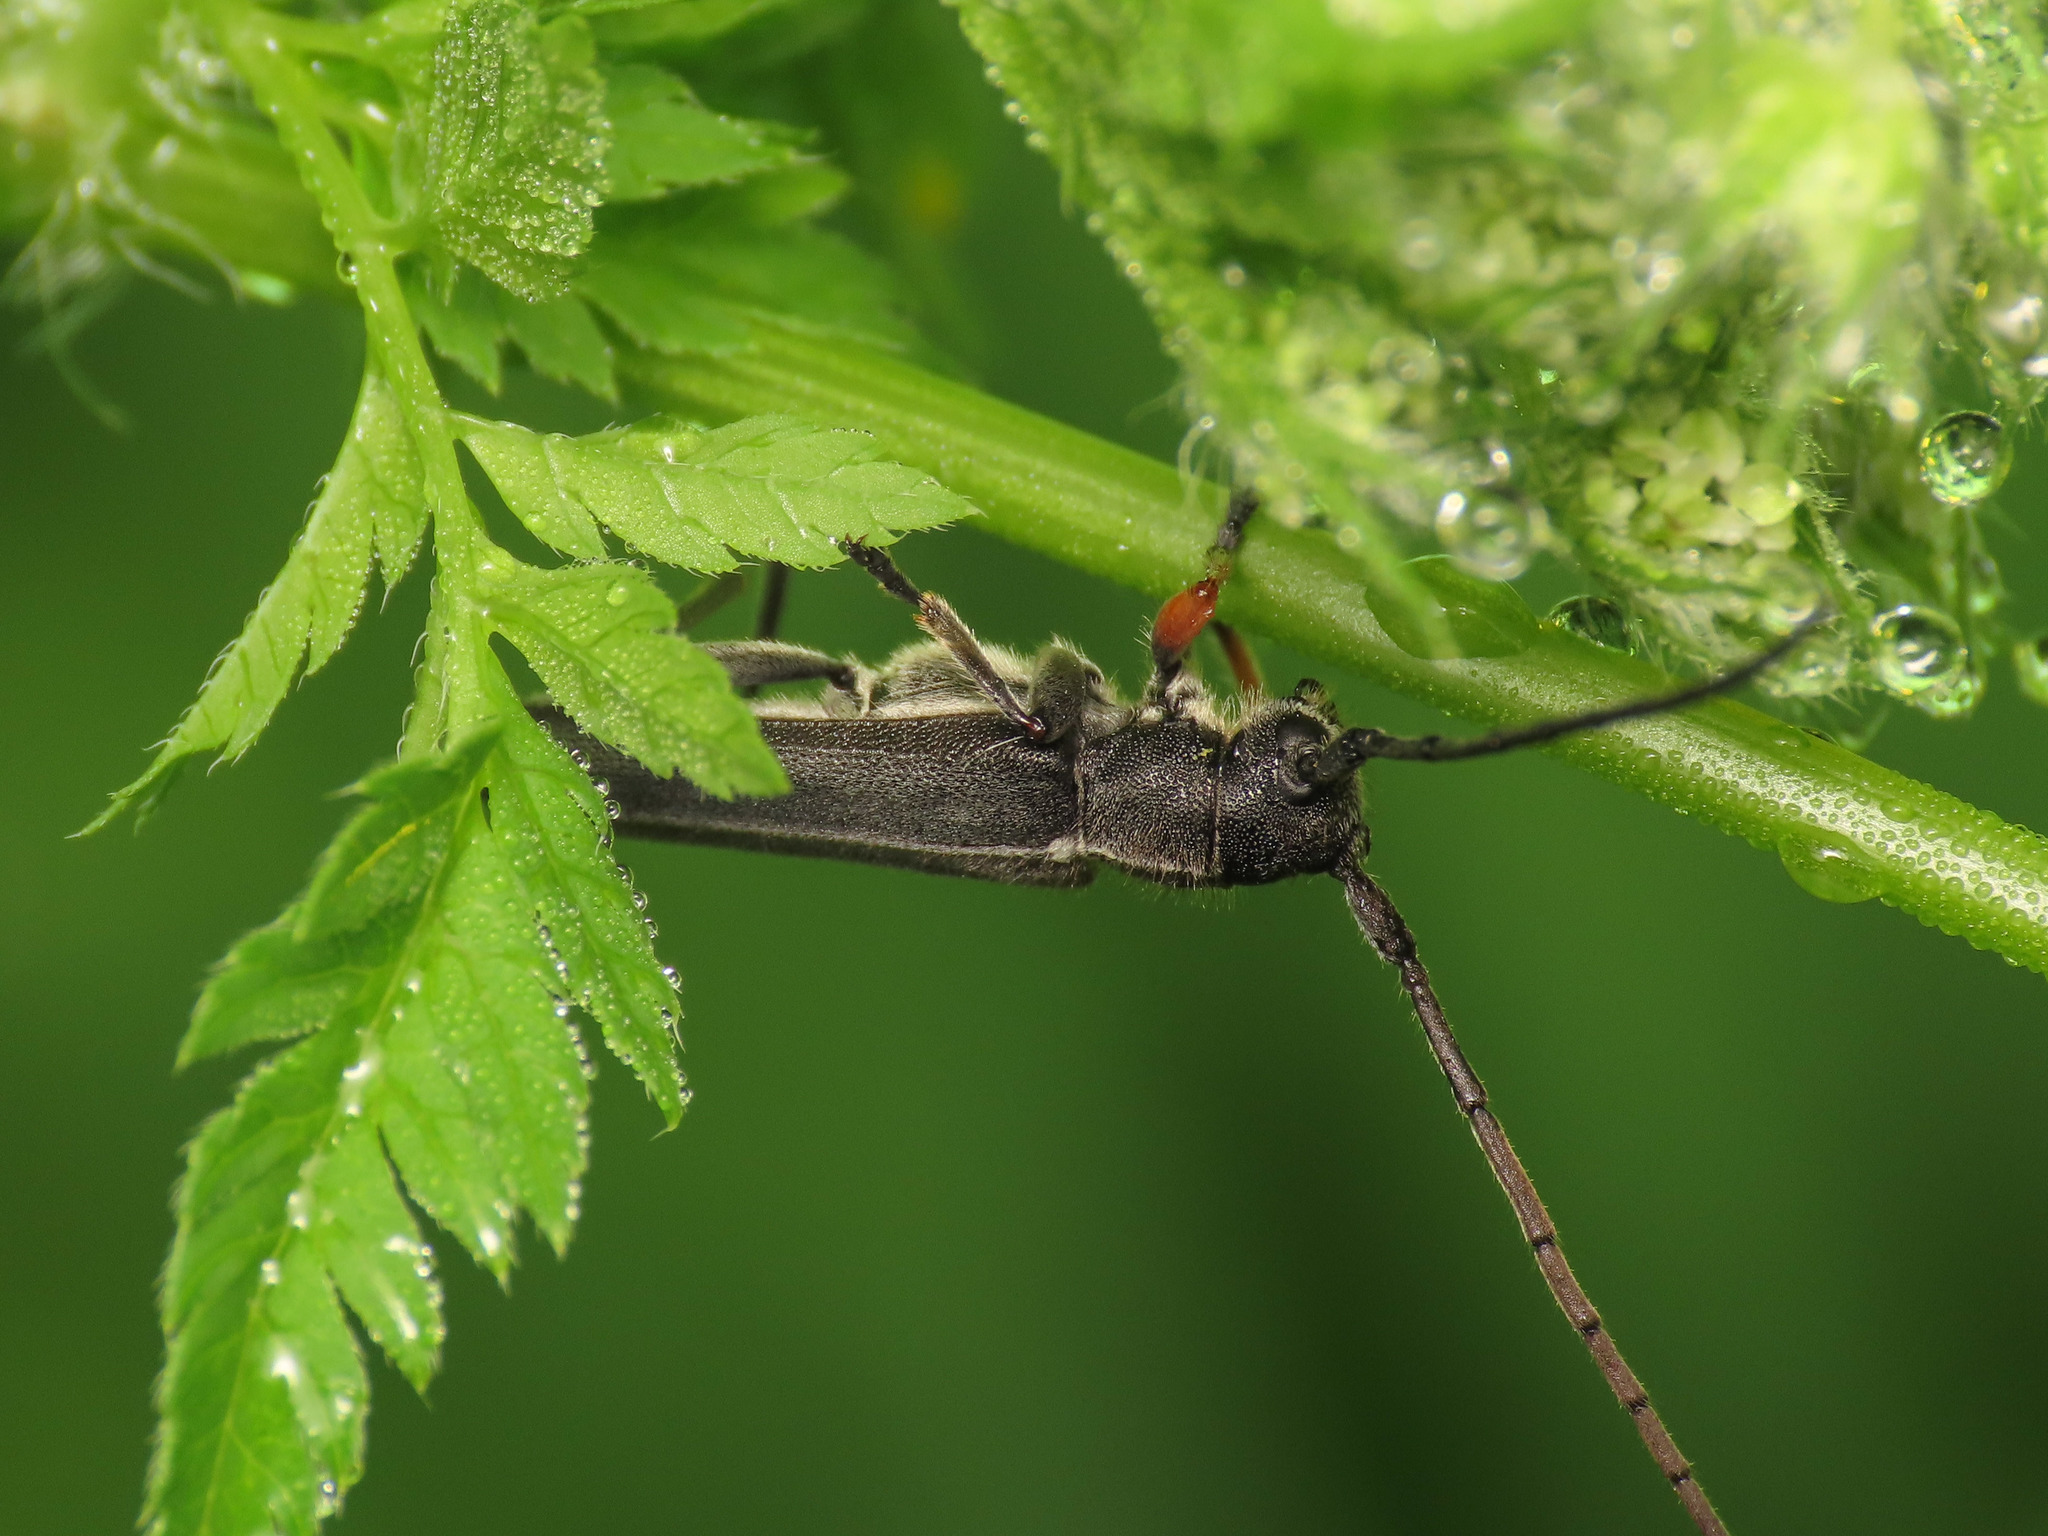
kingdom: Animalia
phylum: Arthropoda
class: Insecta
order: Coleoptera
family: Cerambycidae
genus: Phytoecia
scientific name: Phytoecia cylindrica
